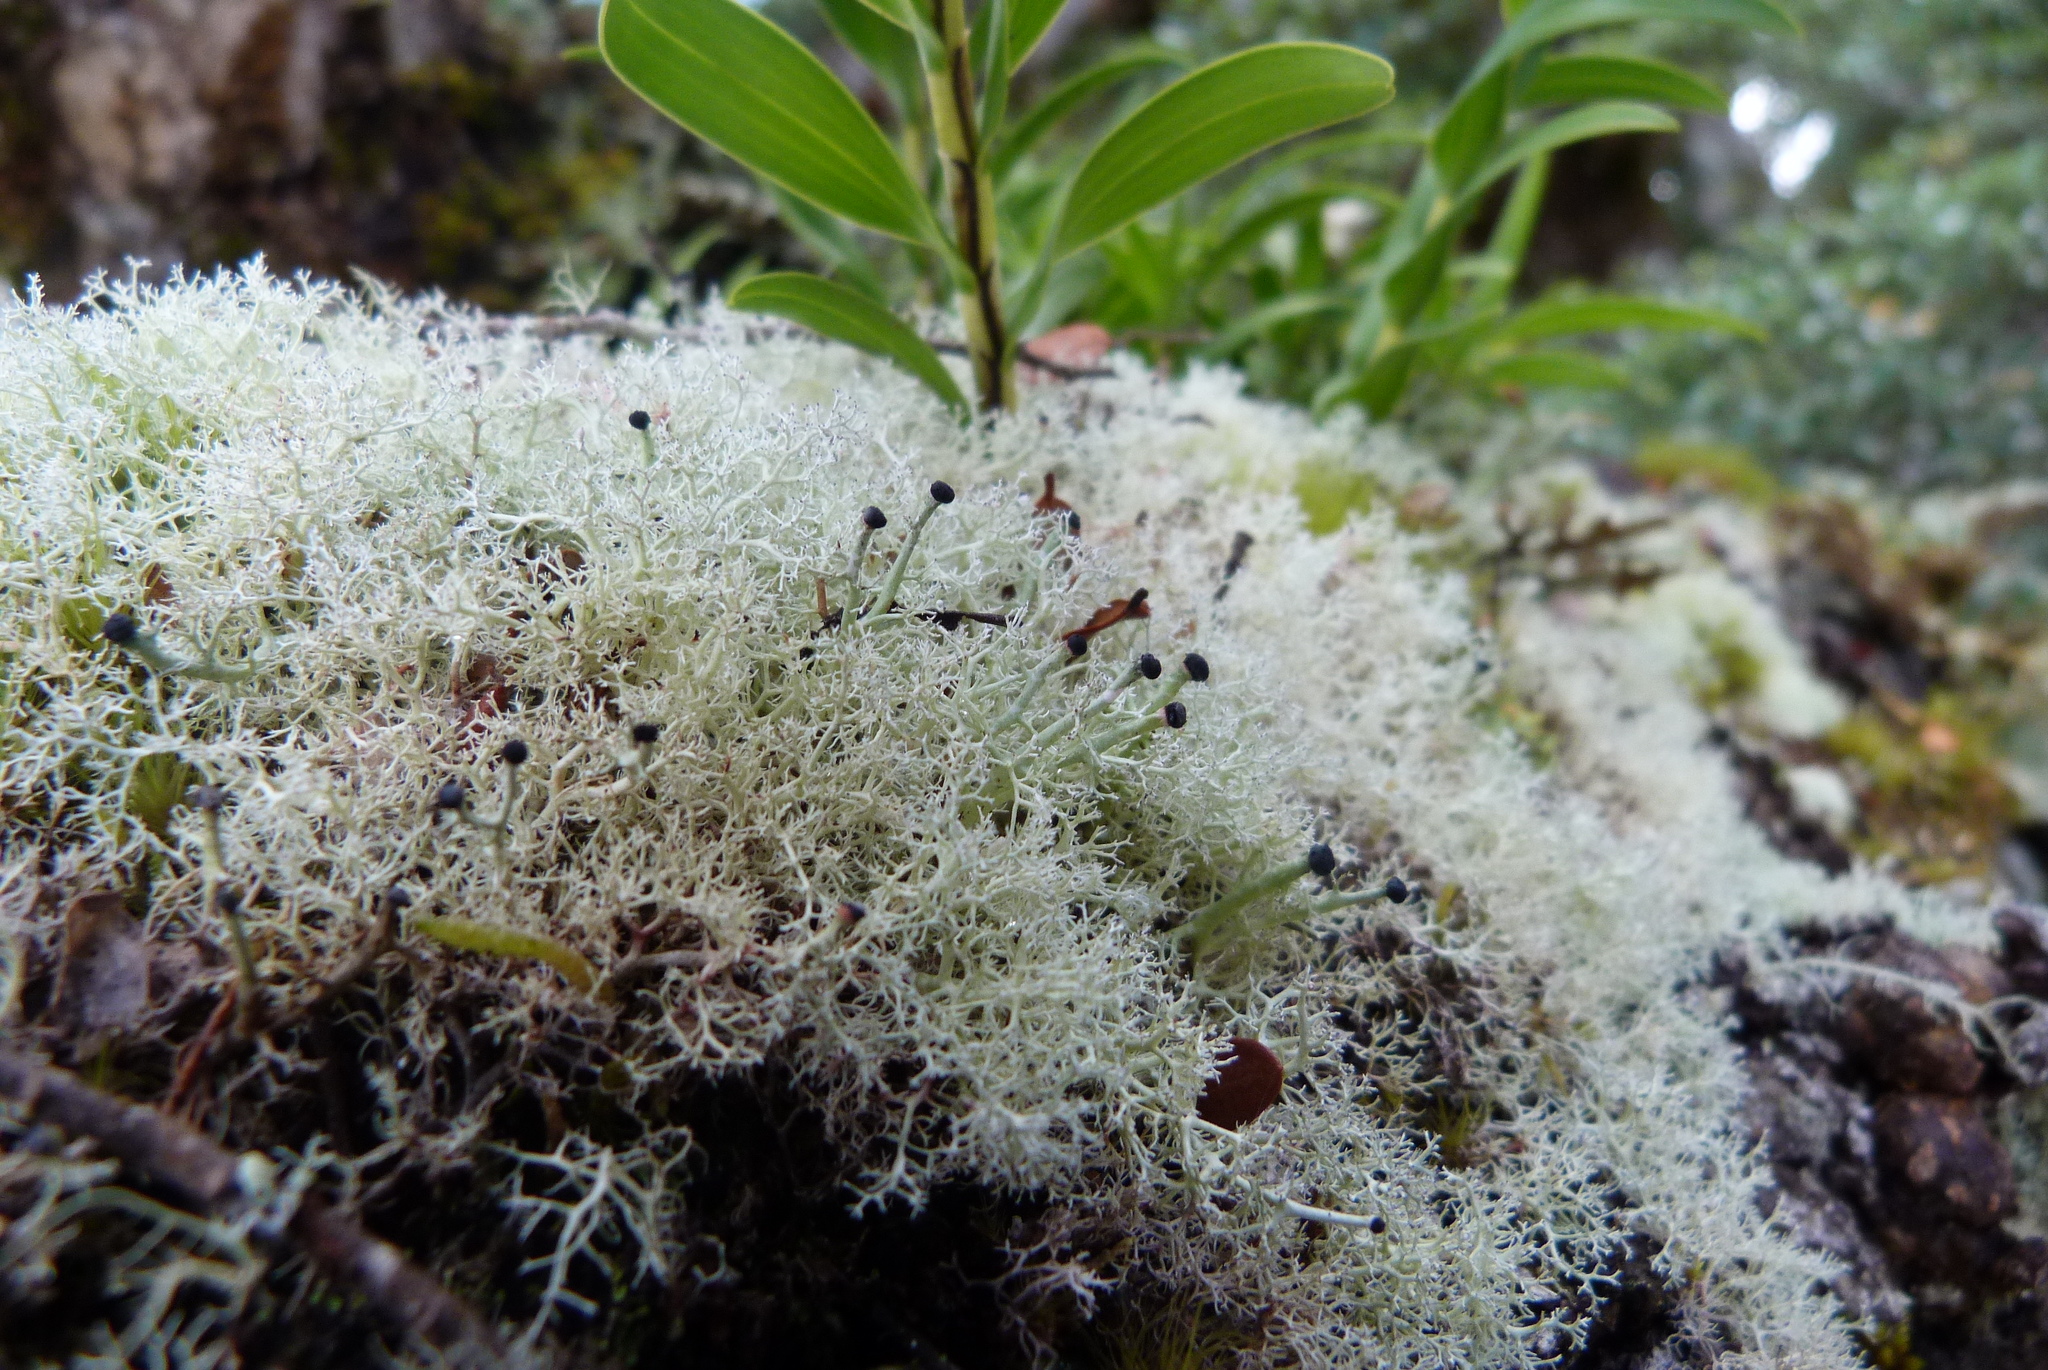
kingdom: Fungi
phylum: Ascomycota
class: Lecanoromycetes
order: Lecanorales
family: Sphaerophoraceae
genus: Leifidium
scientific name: Leifidium tenerum
